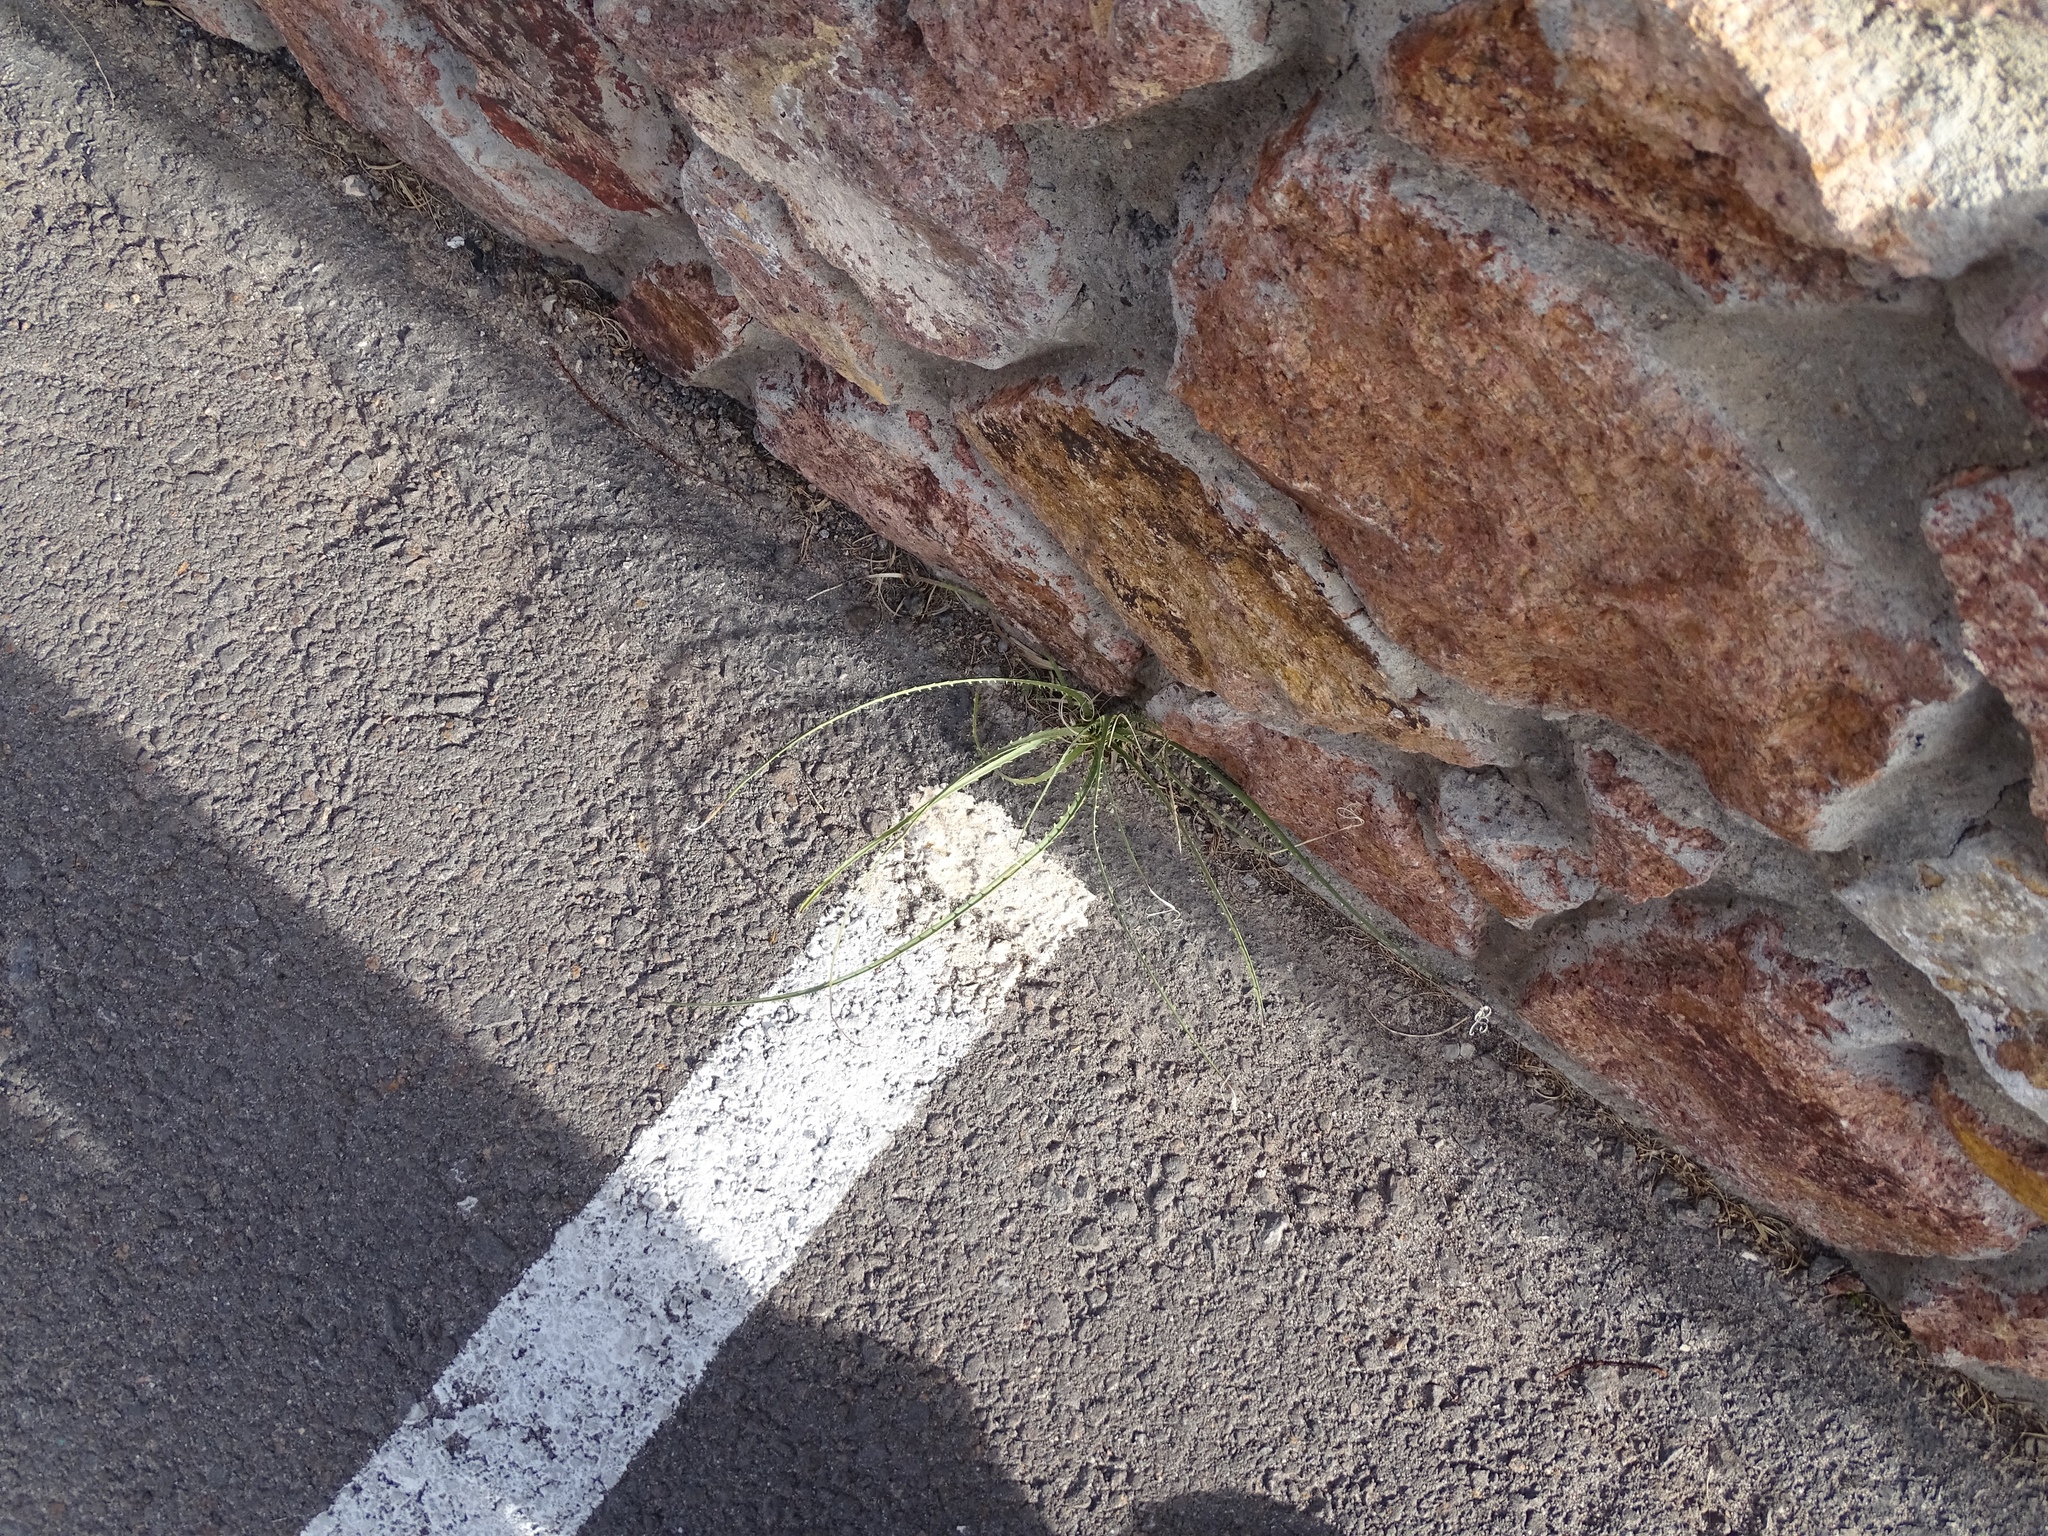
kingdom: Plantae
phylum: Tracheophyta
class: Liliopsida
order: Asparagales
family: Asparagaceae
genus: Dasylirion
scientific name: Dasylirion wheeleri
